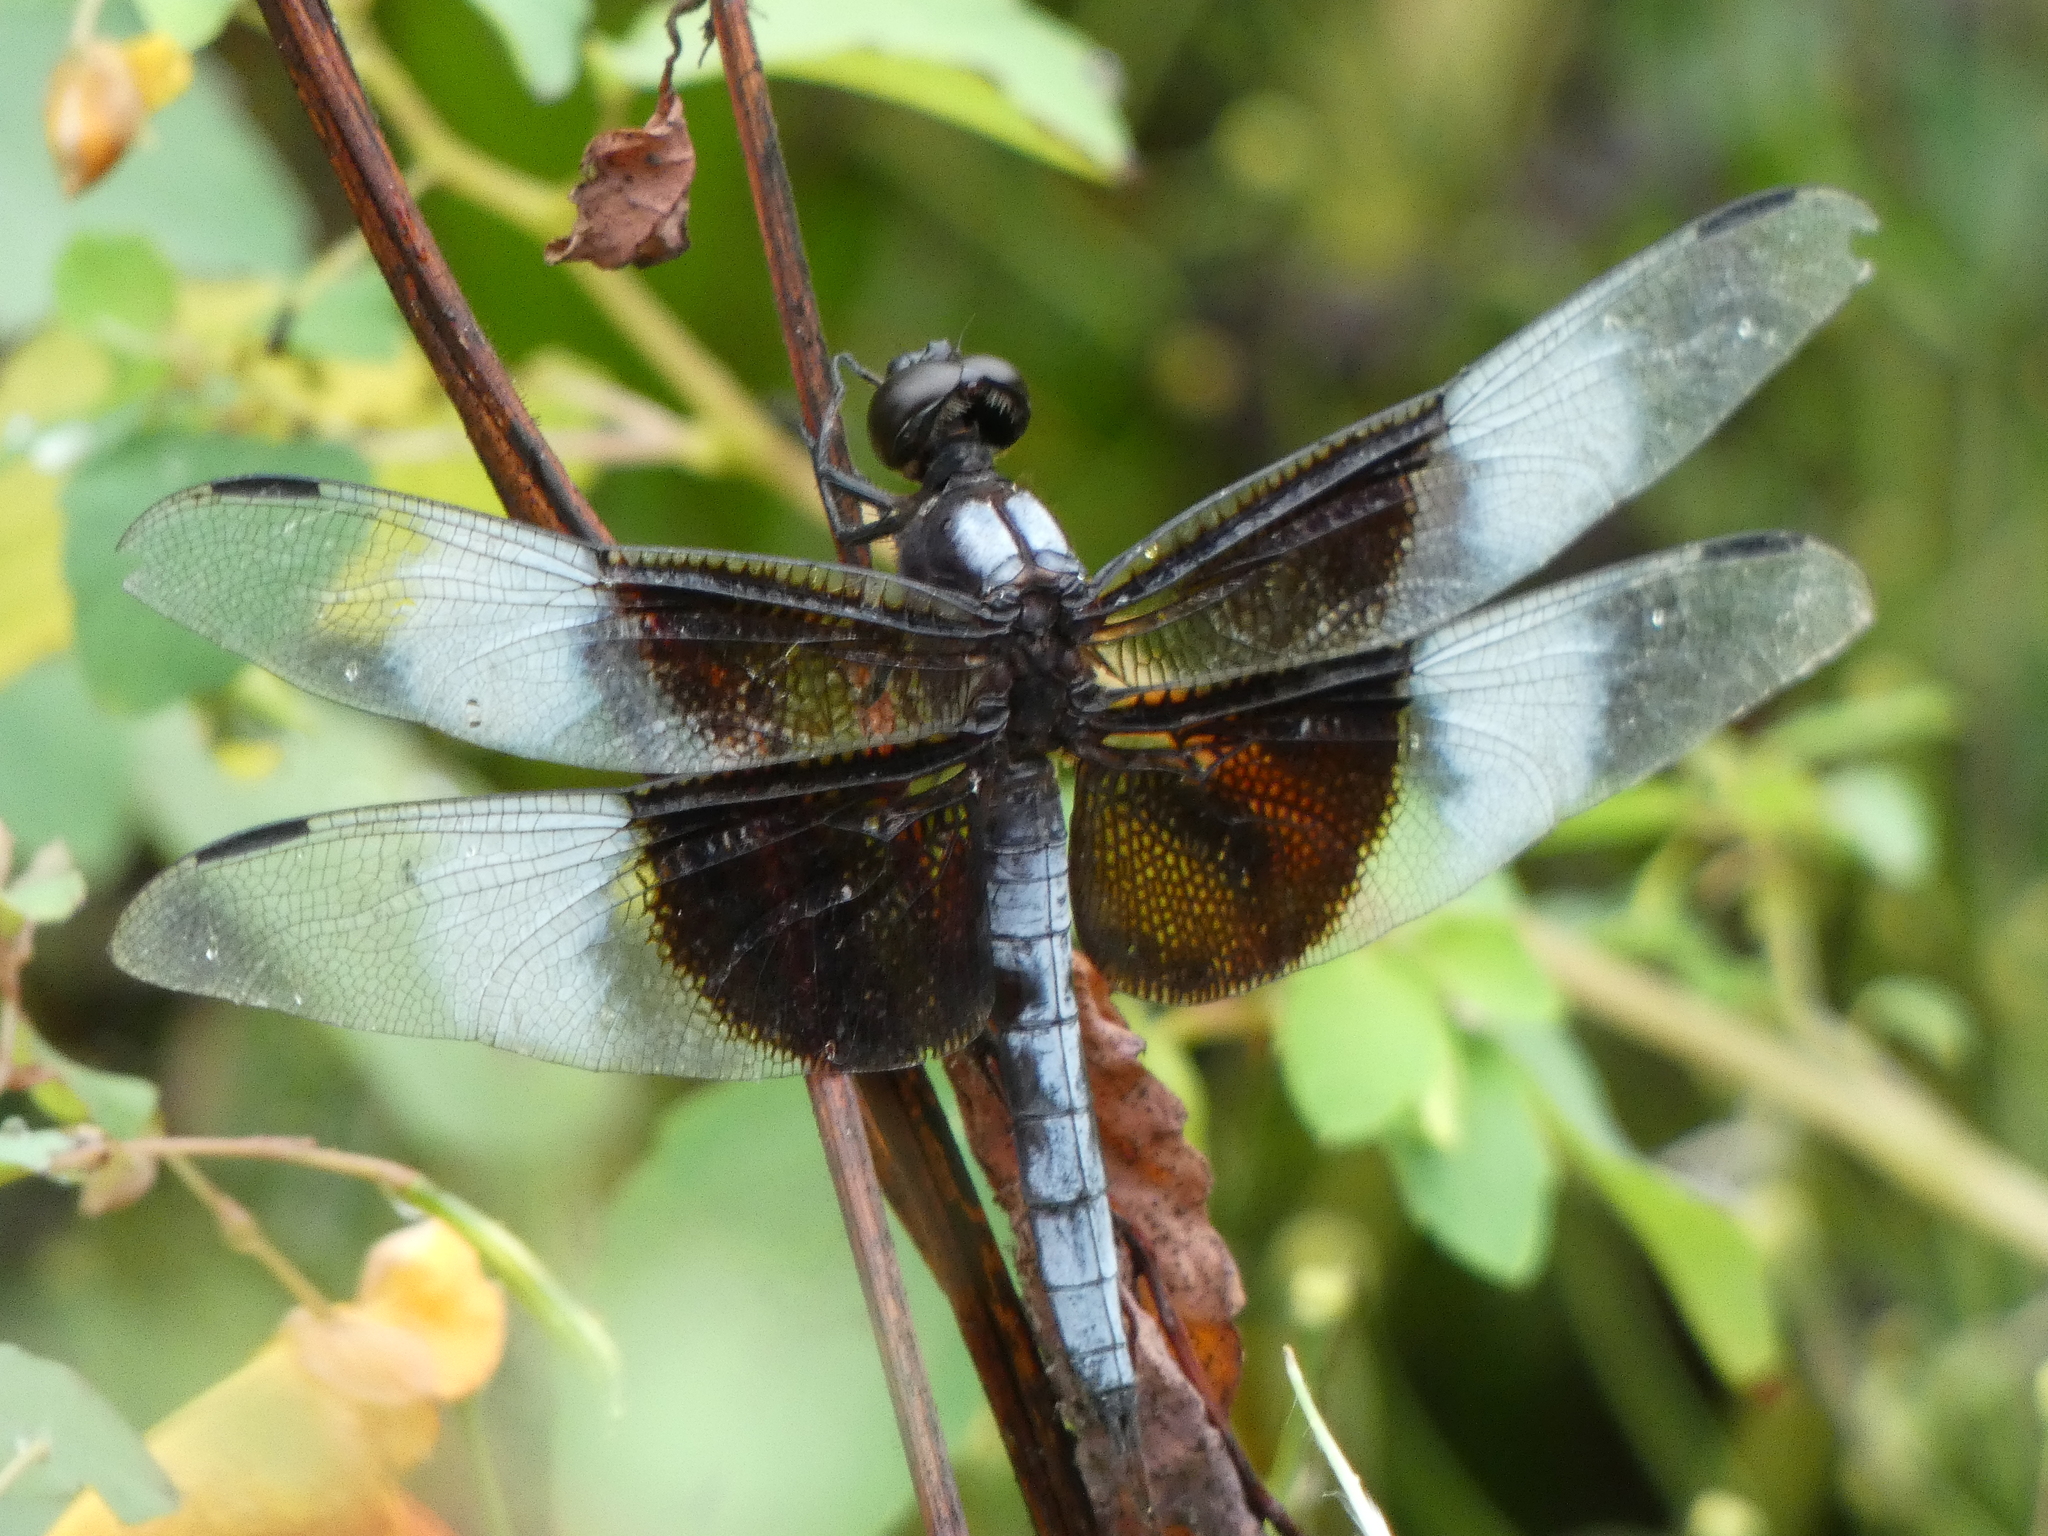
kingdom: Animalia
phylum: Arthropoda
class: Insecta
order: Odonata
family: Libellulidae
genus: Libellula
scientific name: Libellula luctuosa
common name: Widow skimmer
